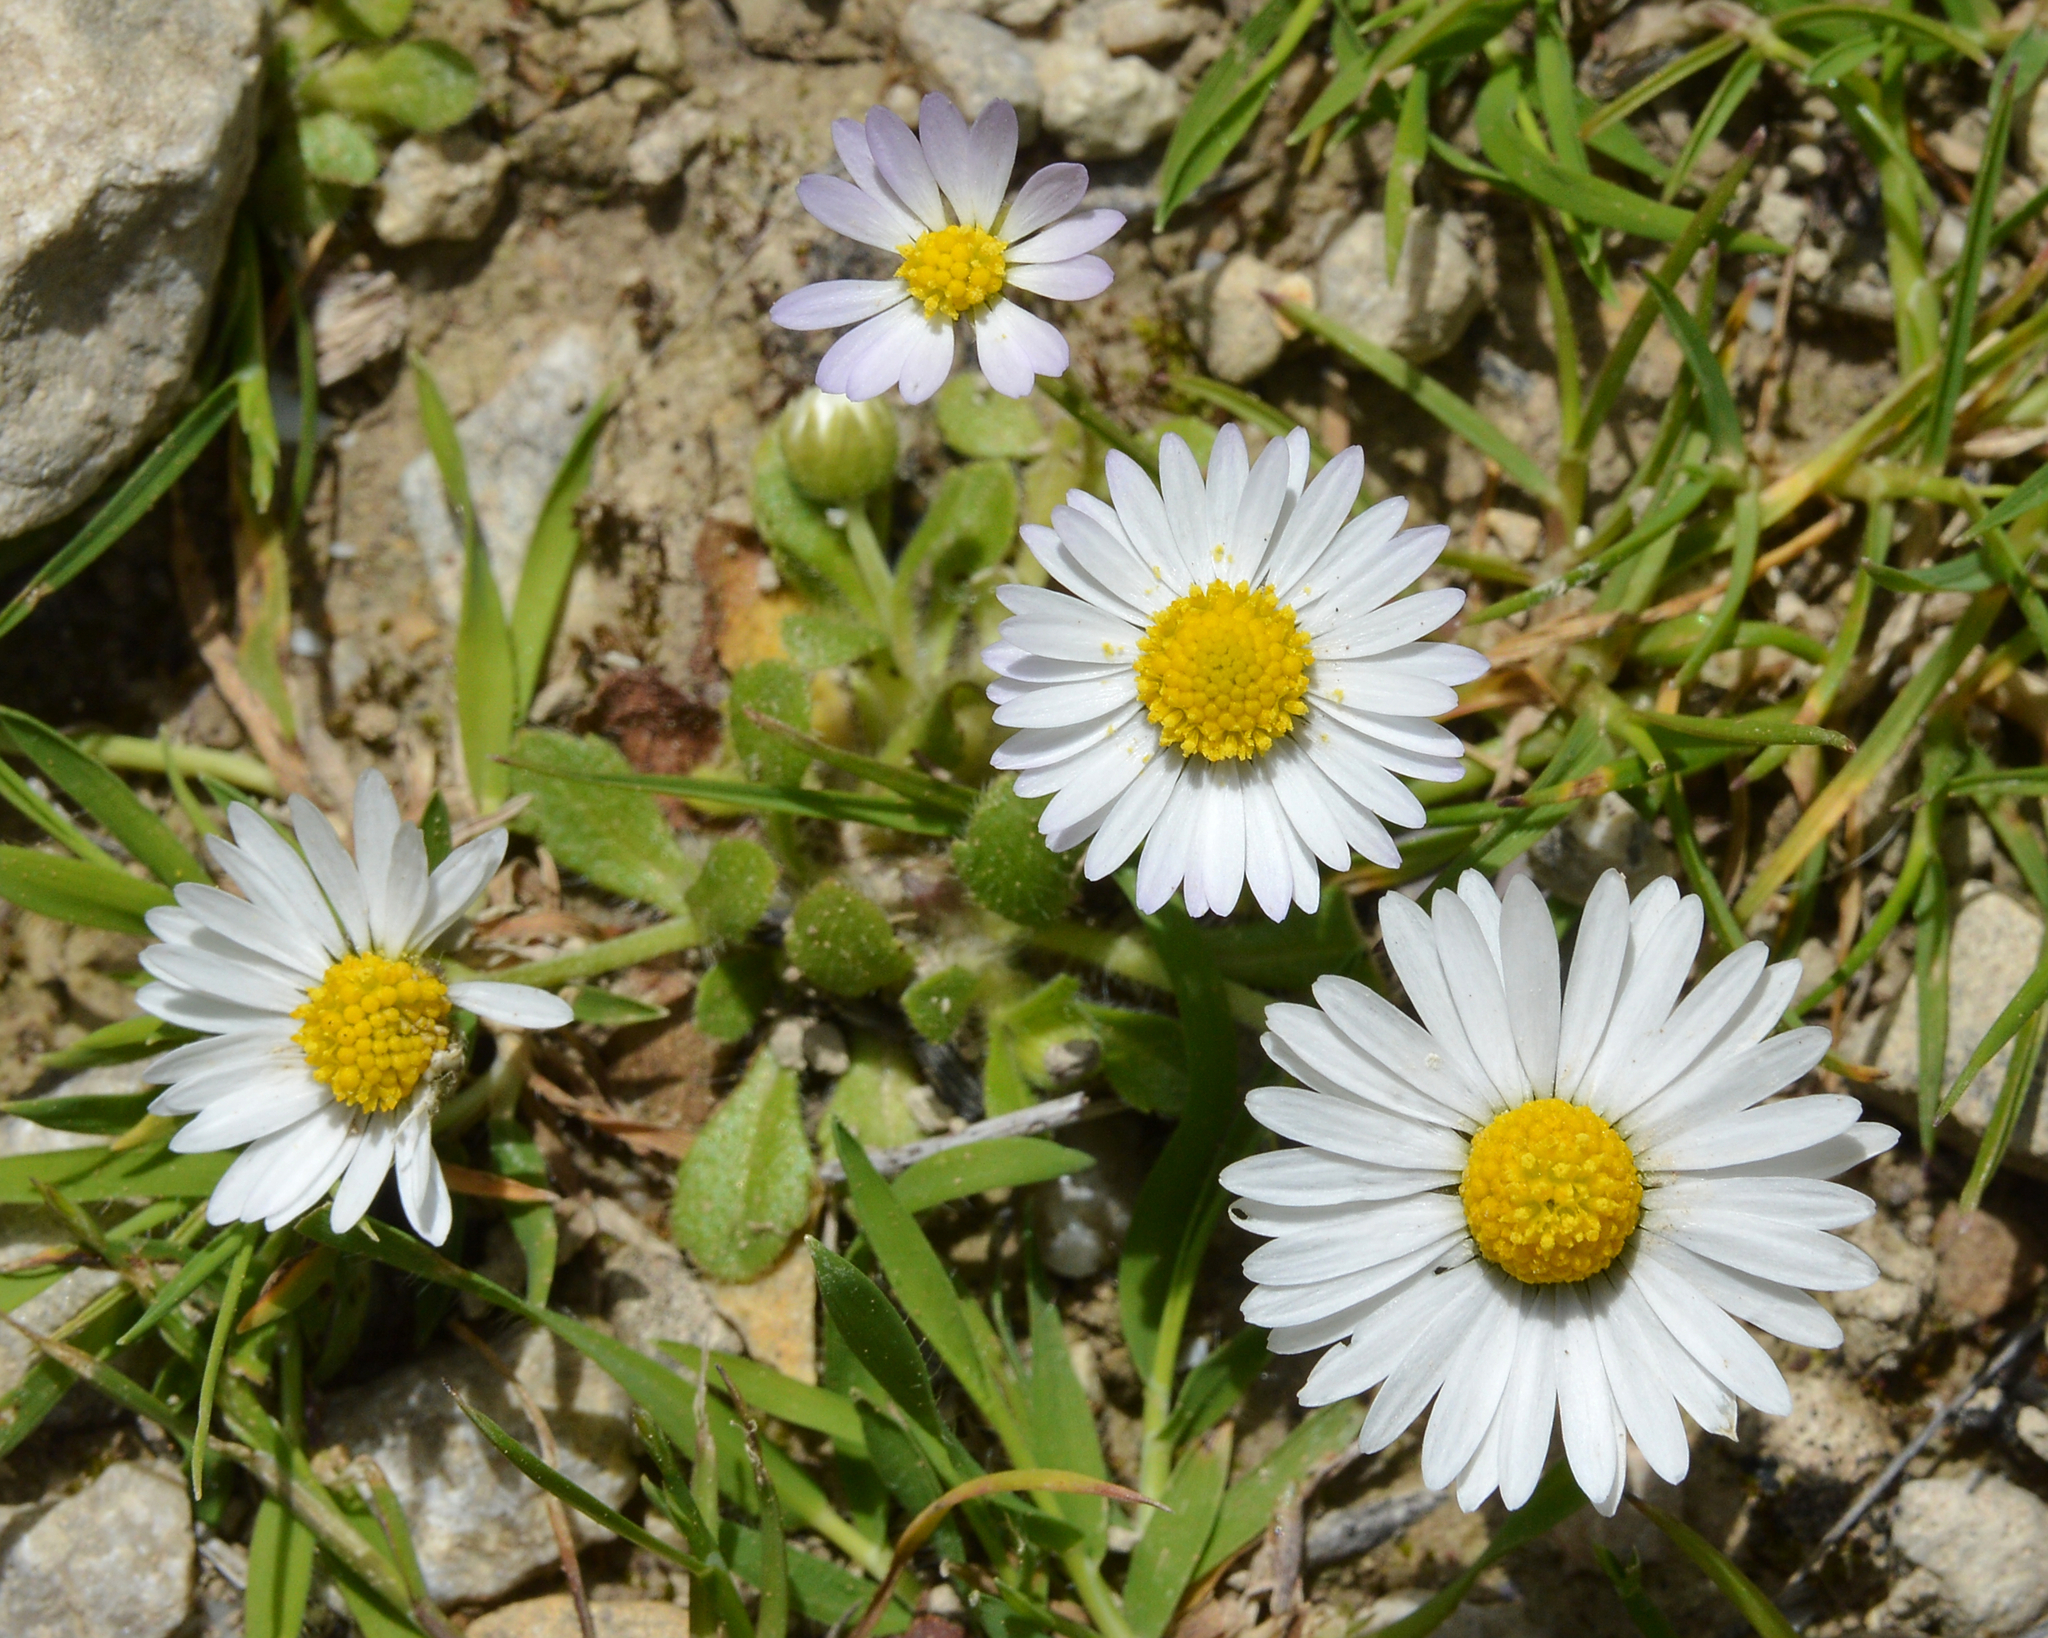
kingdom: Plantae
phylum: Tracheophyta
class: Magnoliopsida
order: Asterales
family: Asteraceae
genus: Bellis
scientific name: Bellis annua
